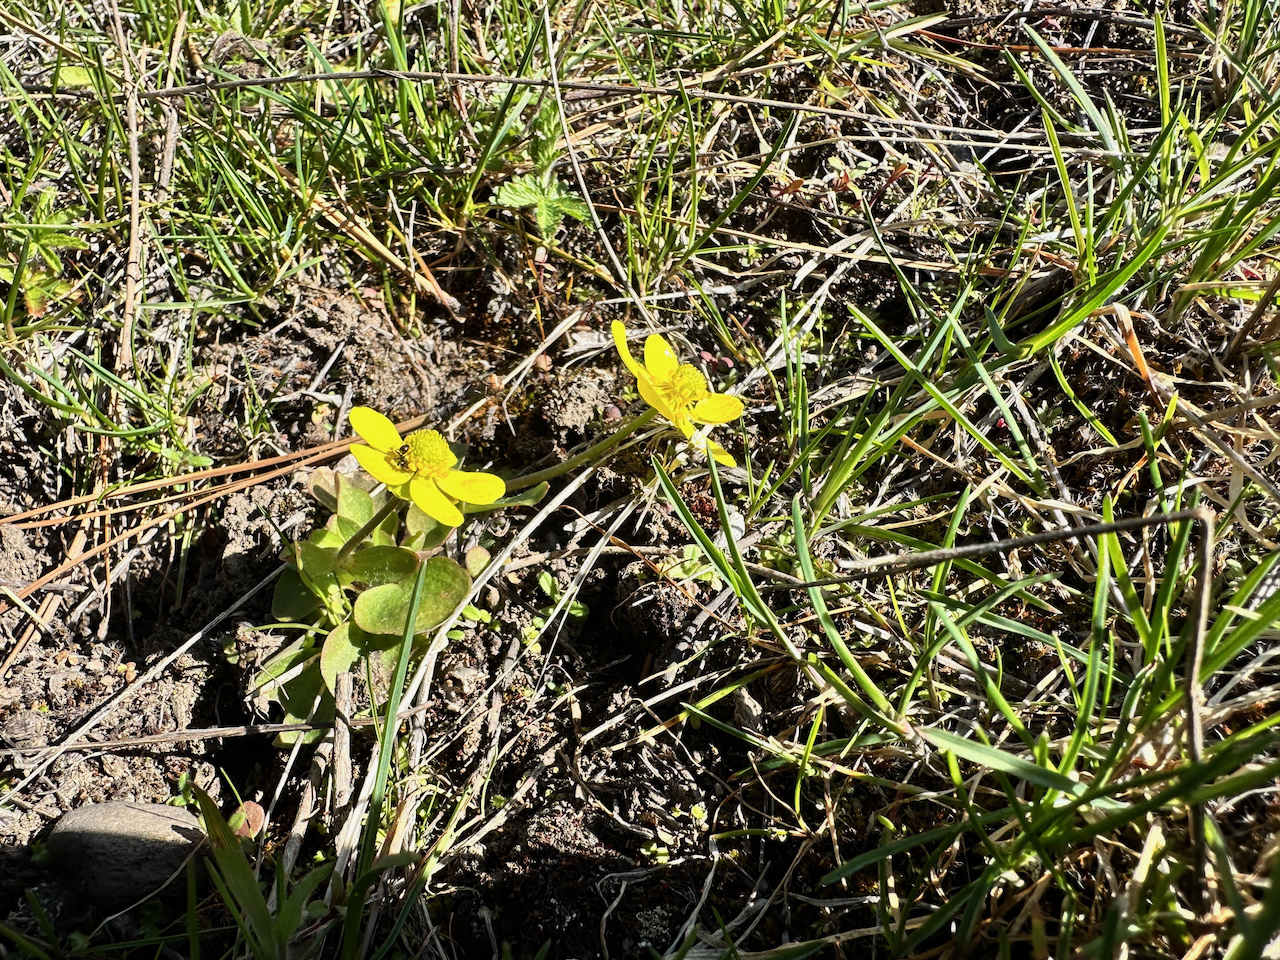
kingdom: Plantae
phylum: Tracheophyta
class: Magnoliopsida
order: Ranunculales
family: Ranunculaceae
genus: Ranunculus
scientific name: Ranunculus glaberrimus
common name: Sagebrush buttercup
